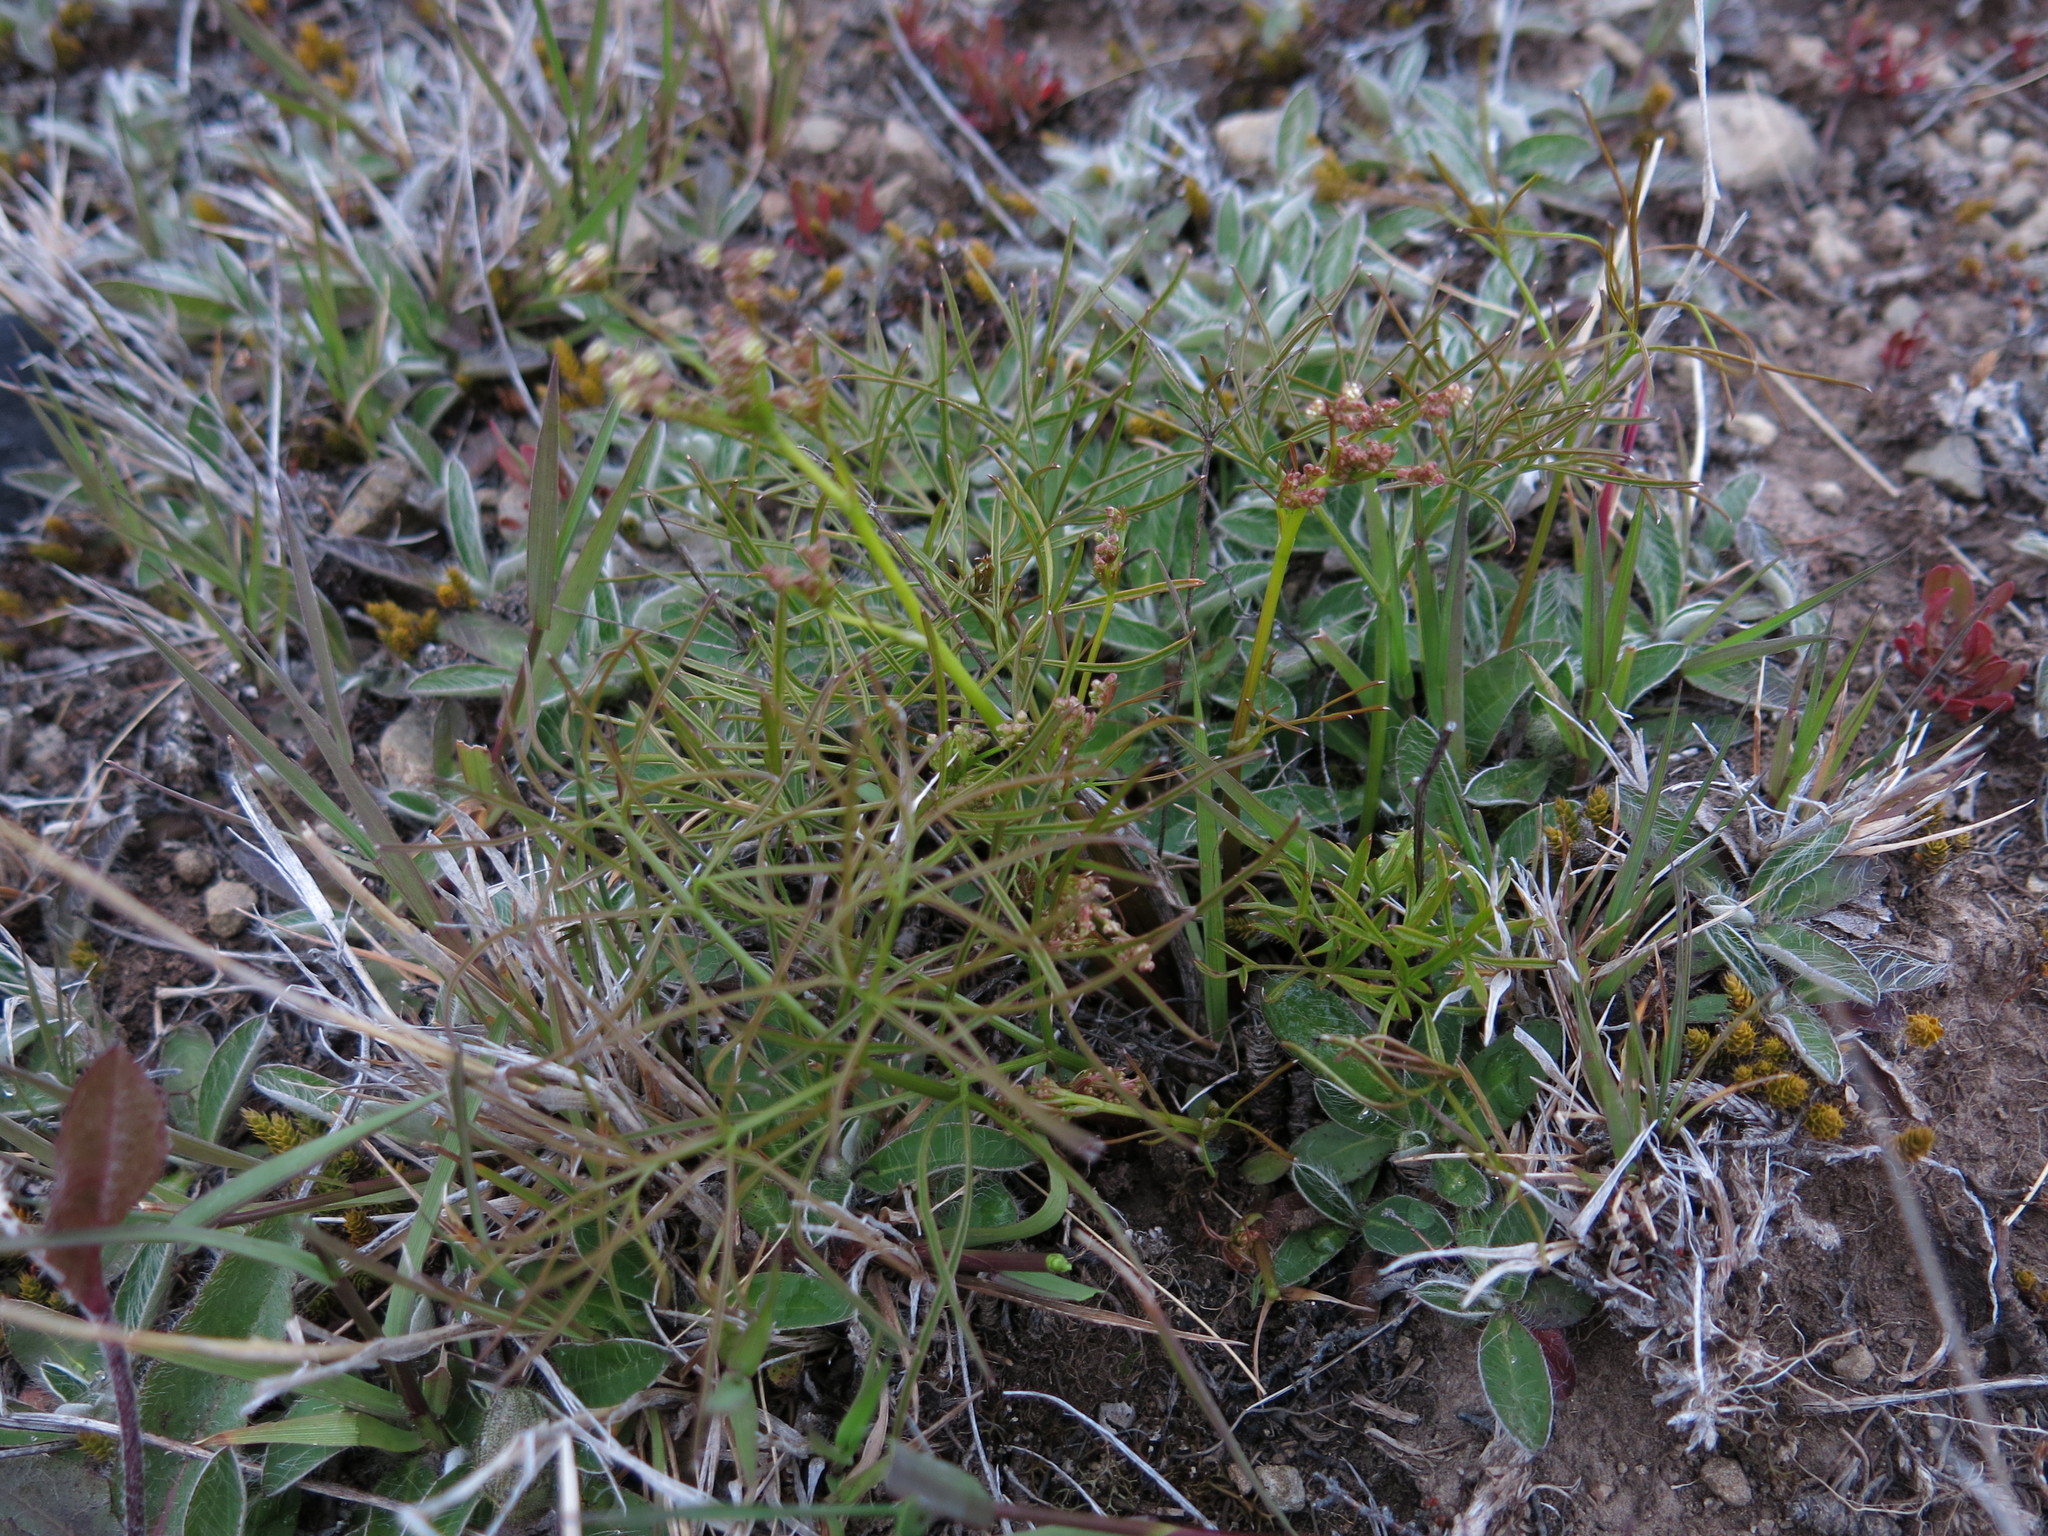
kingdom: Plantae
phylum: Tracheophyta
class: Magnoliopsida
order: Apiales
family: Apiaceae
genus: Anisotome
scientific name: Anisotome filifolia
